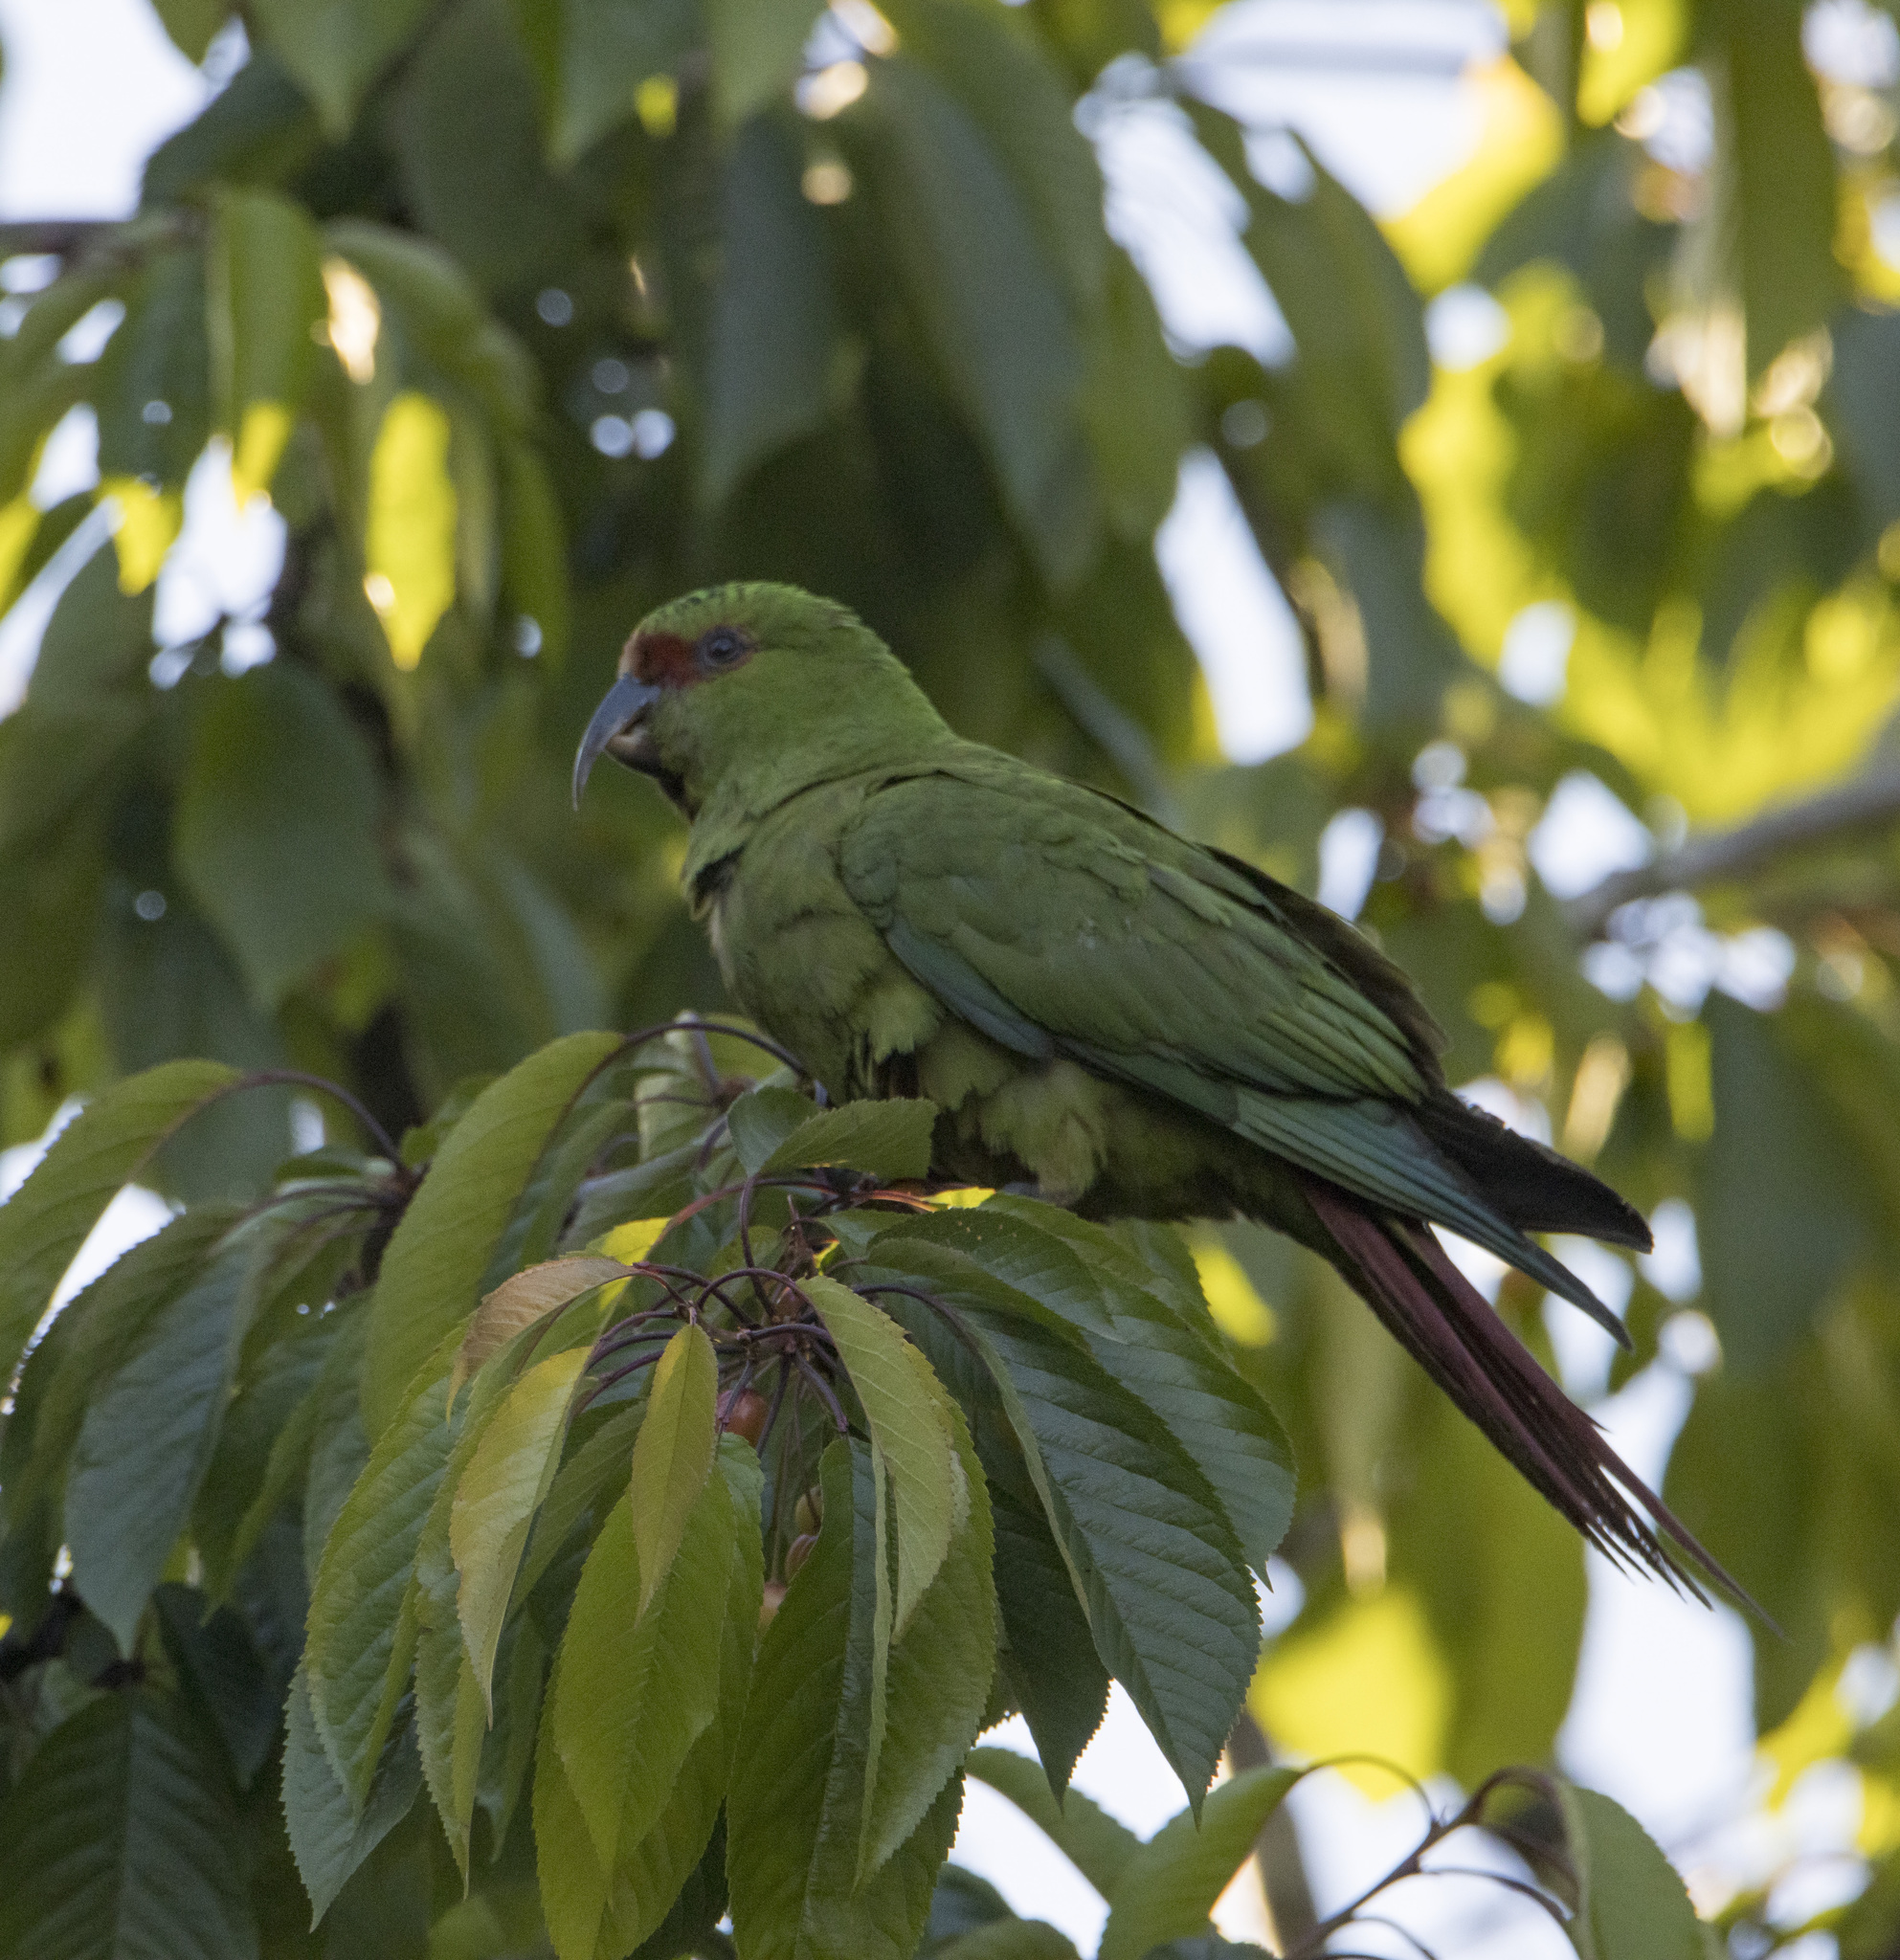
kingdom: Animalia
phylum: Chordata
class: Aves
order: Psittaciformes
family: Psittacidae
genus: Enicognathus
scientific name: Enicognathus leptorhynchus
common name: Slender-billed parakeet
